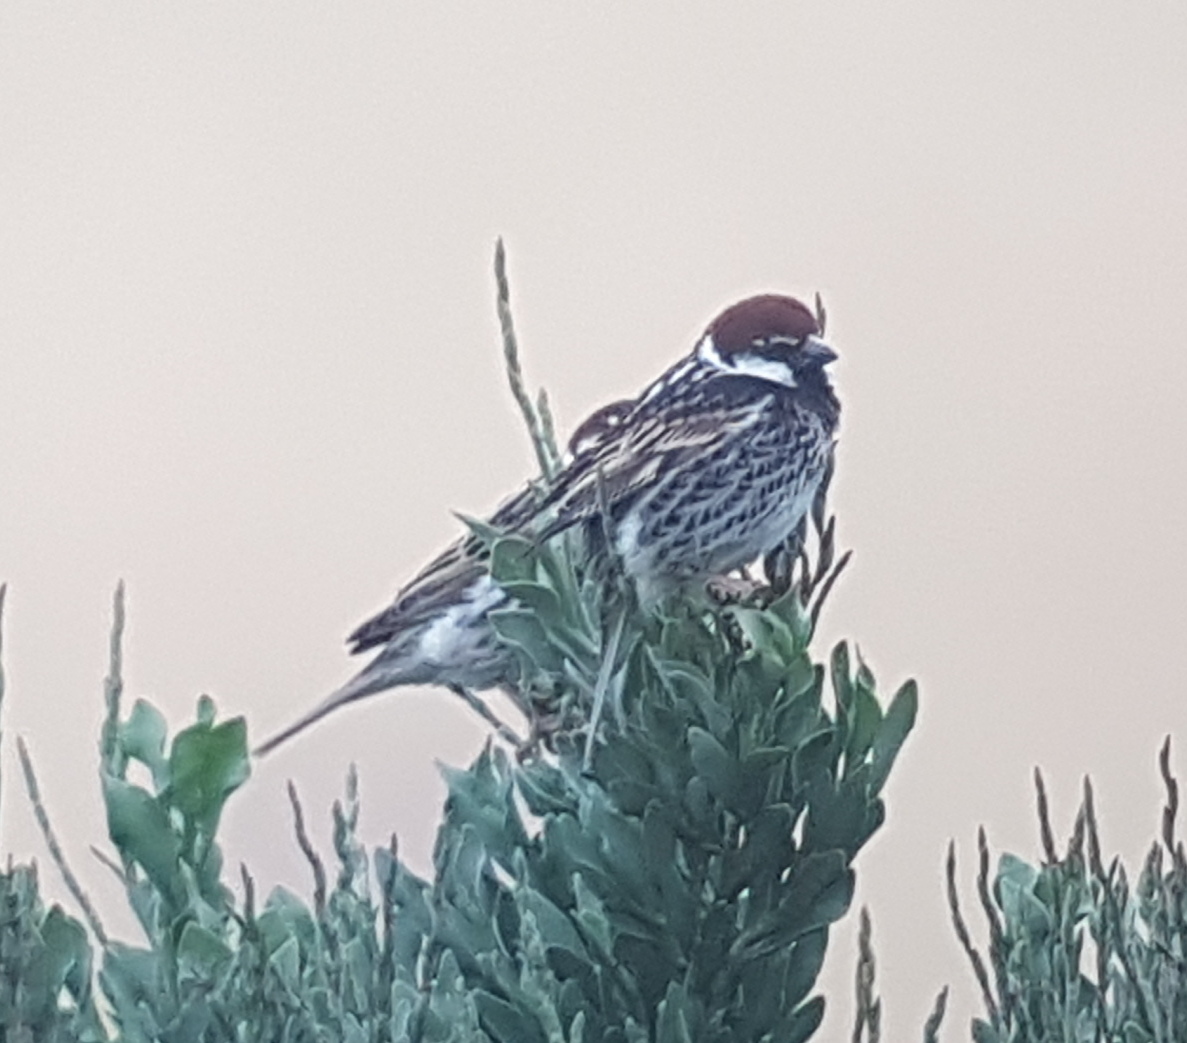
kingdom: Animalia
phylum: Chordata
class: Aves
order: Passeriformes
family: Passeridae
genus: Passer
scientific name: Passer hispaniolensis
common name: Spanish sparrow
